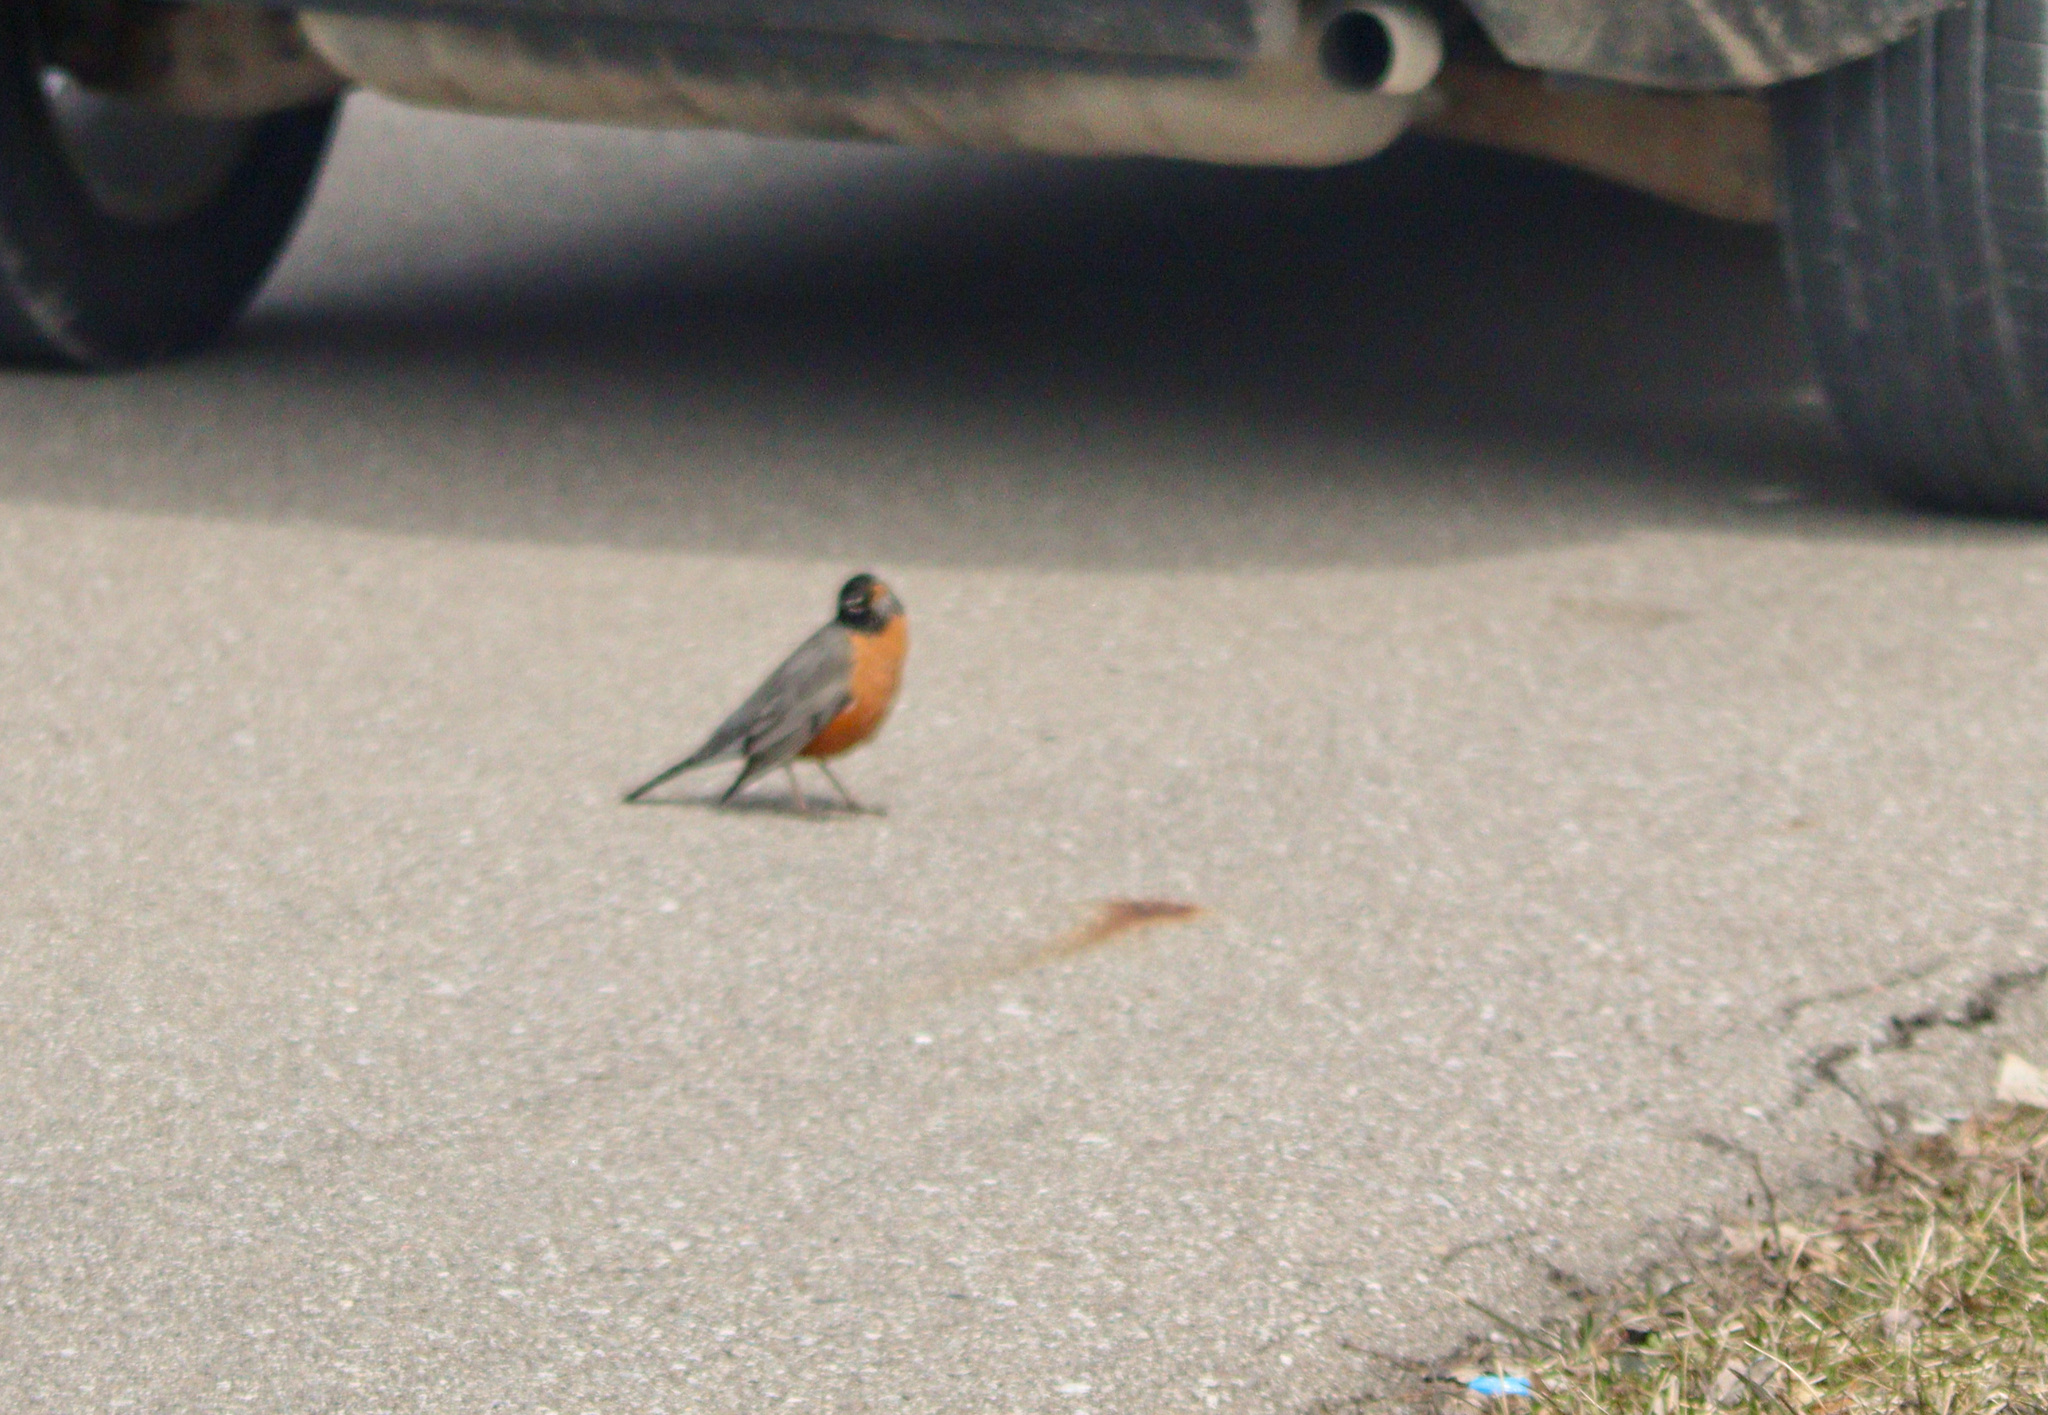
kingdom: Animalia
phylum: Chordata
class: Aves
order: Passeriformes
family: Turdidae
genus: Turdus
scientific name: Turdus migratorius
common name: American robin
